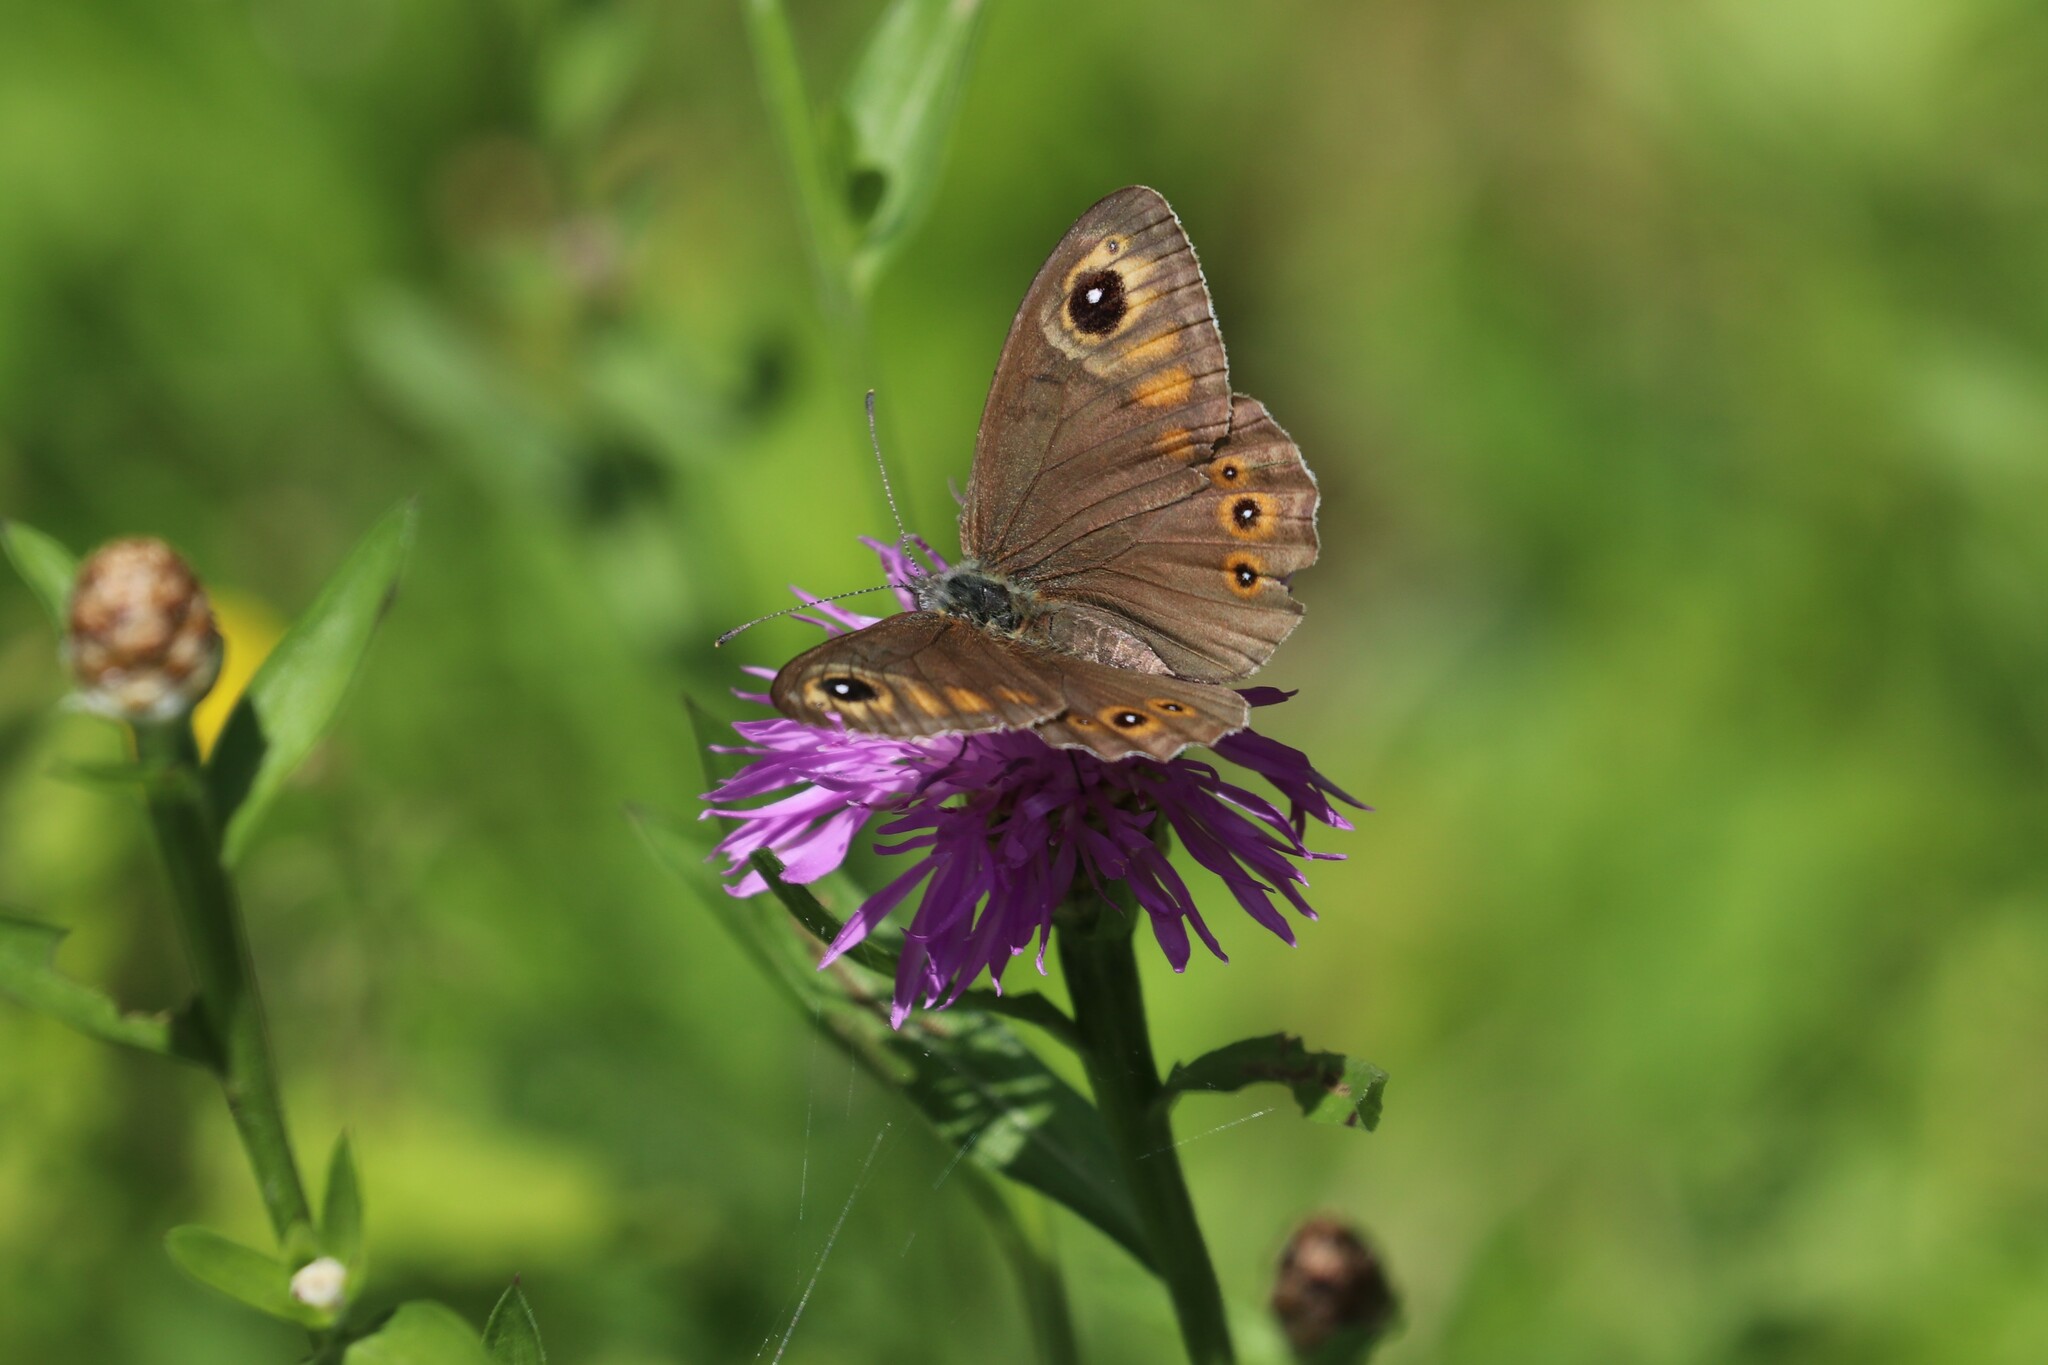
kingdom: Animalia
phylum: Arthropoda
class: Insecta
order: Lepidoptera
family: Nymphalidae
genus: Pararge
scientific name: Pararge Lasiommata maera
